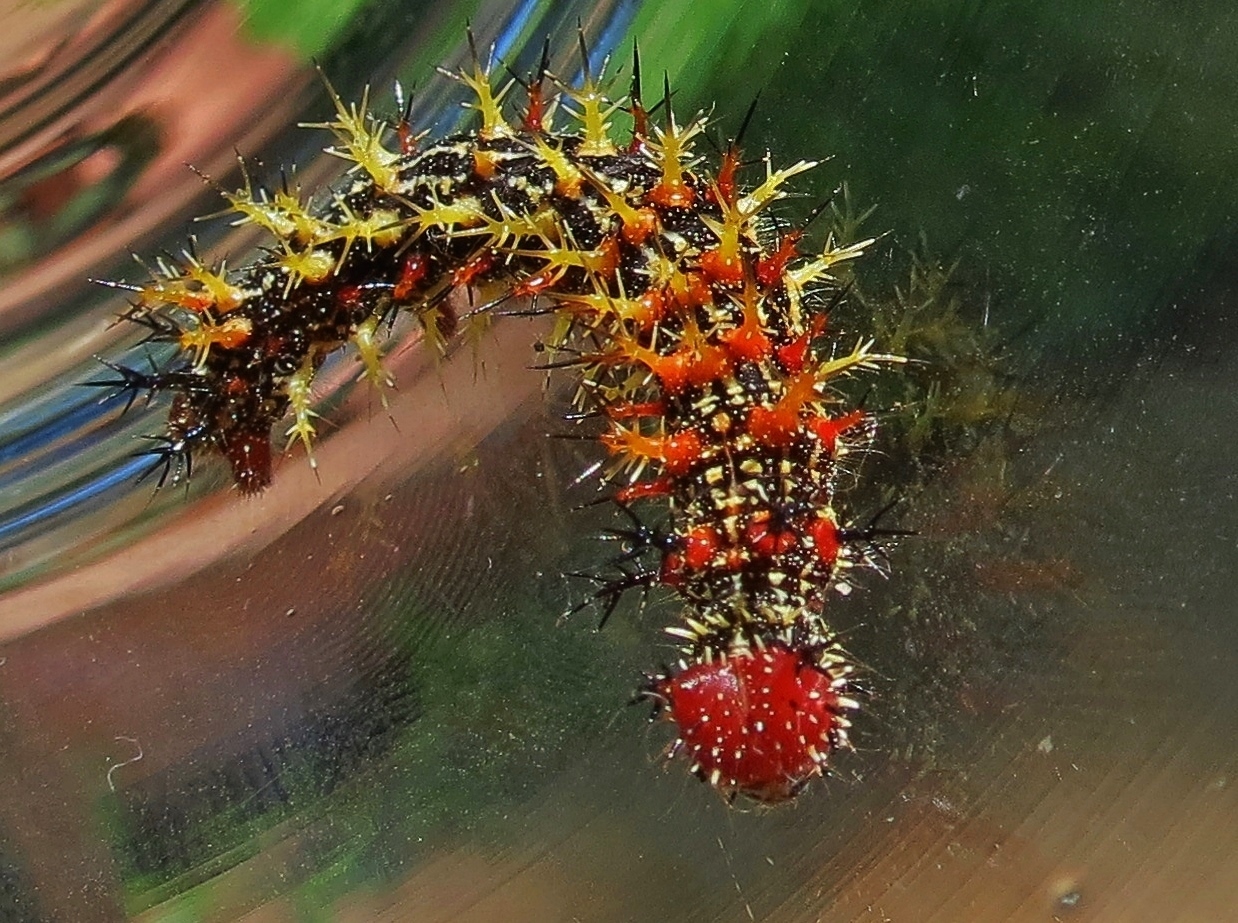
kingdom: Animalia
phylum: Arthropoda
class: Insecta
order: Lepidoptera
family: Nymphalidae
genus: Polygonia
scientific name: Polygonia interrogationis
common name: Question mark
